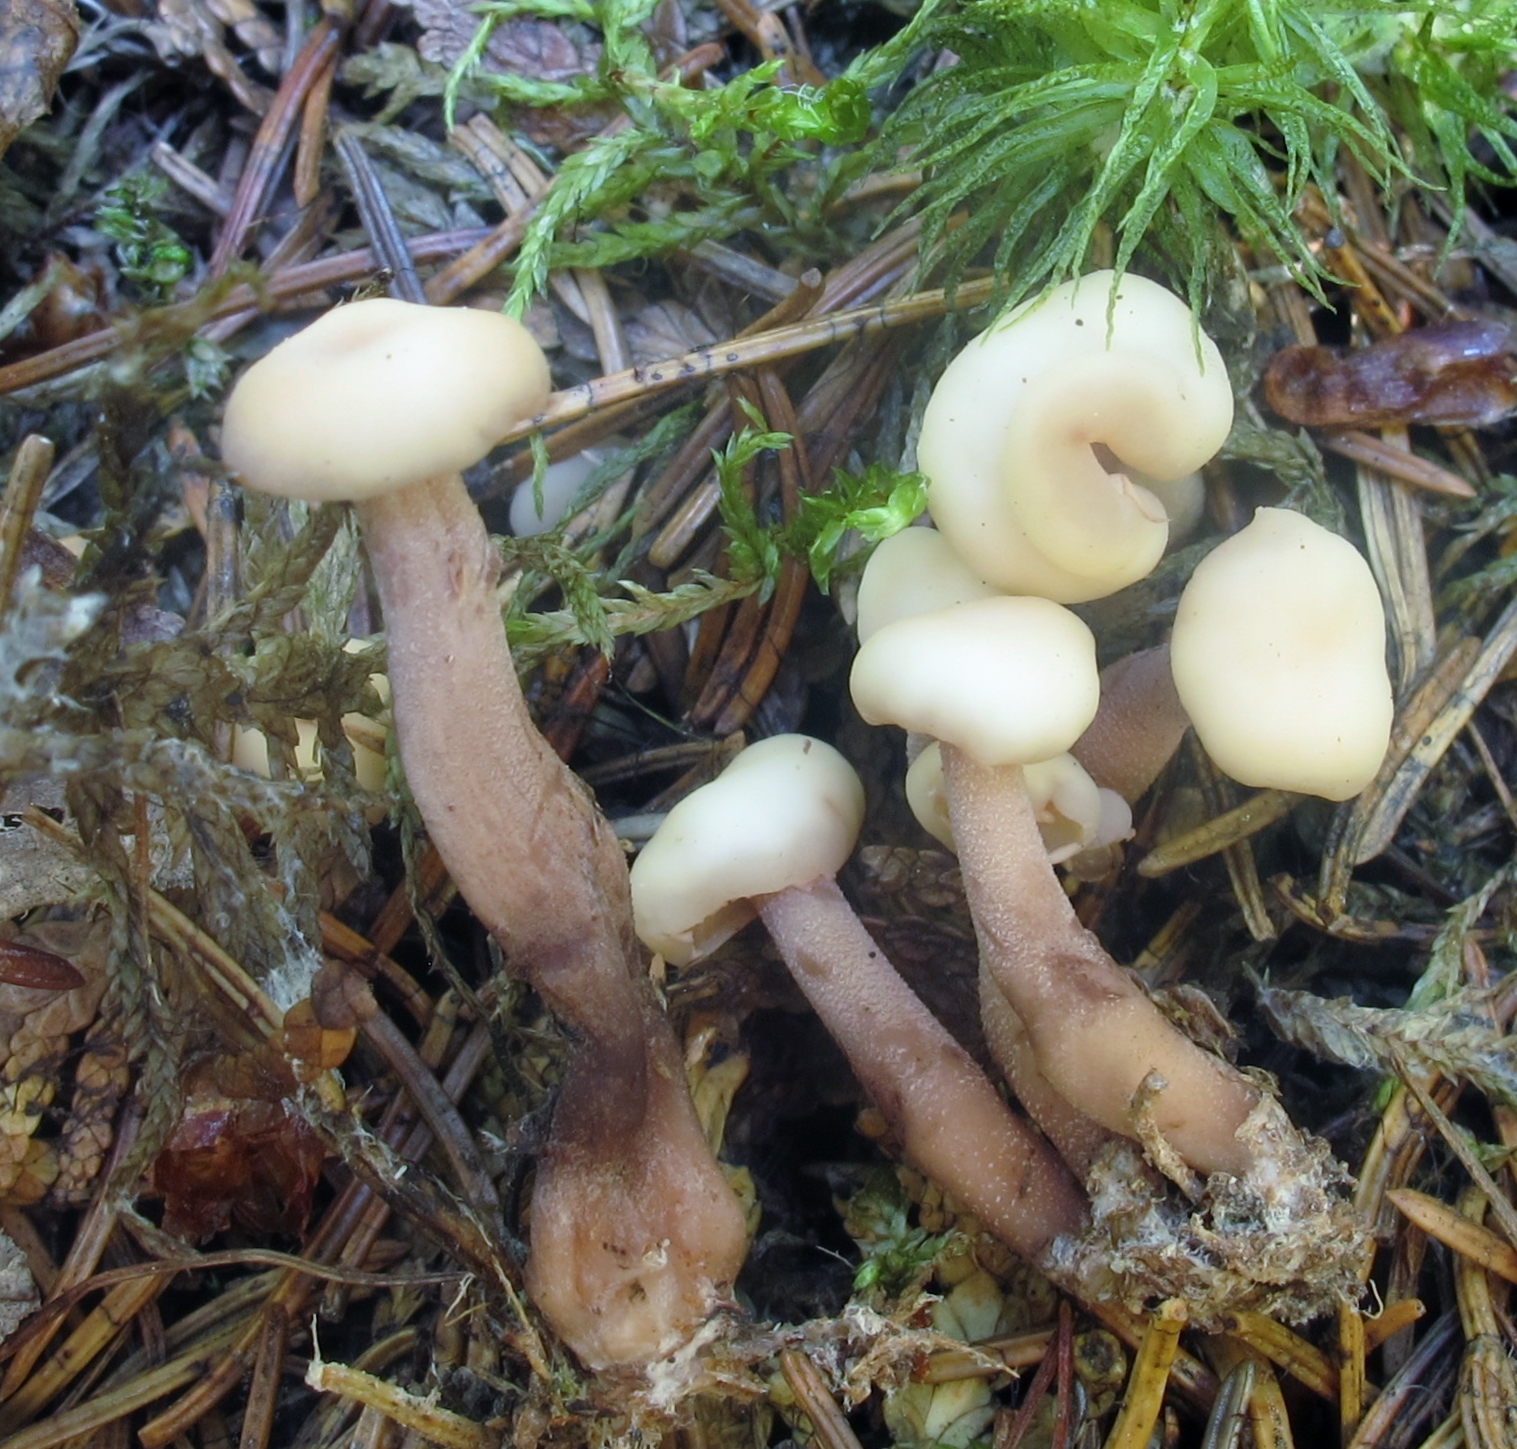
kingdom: Fungi
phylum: Ascomycota
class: Leotiomycetes
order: Rhytismatales
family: Cudoniaceae
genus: Cudonia
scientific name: Cudonia circinans
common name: Redleg jellybaby
